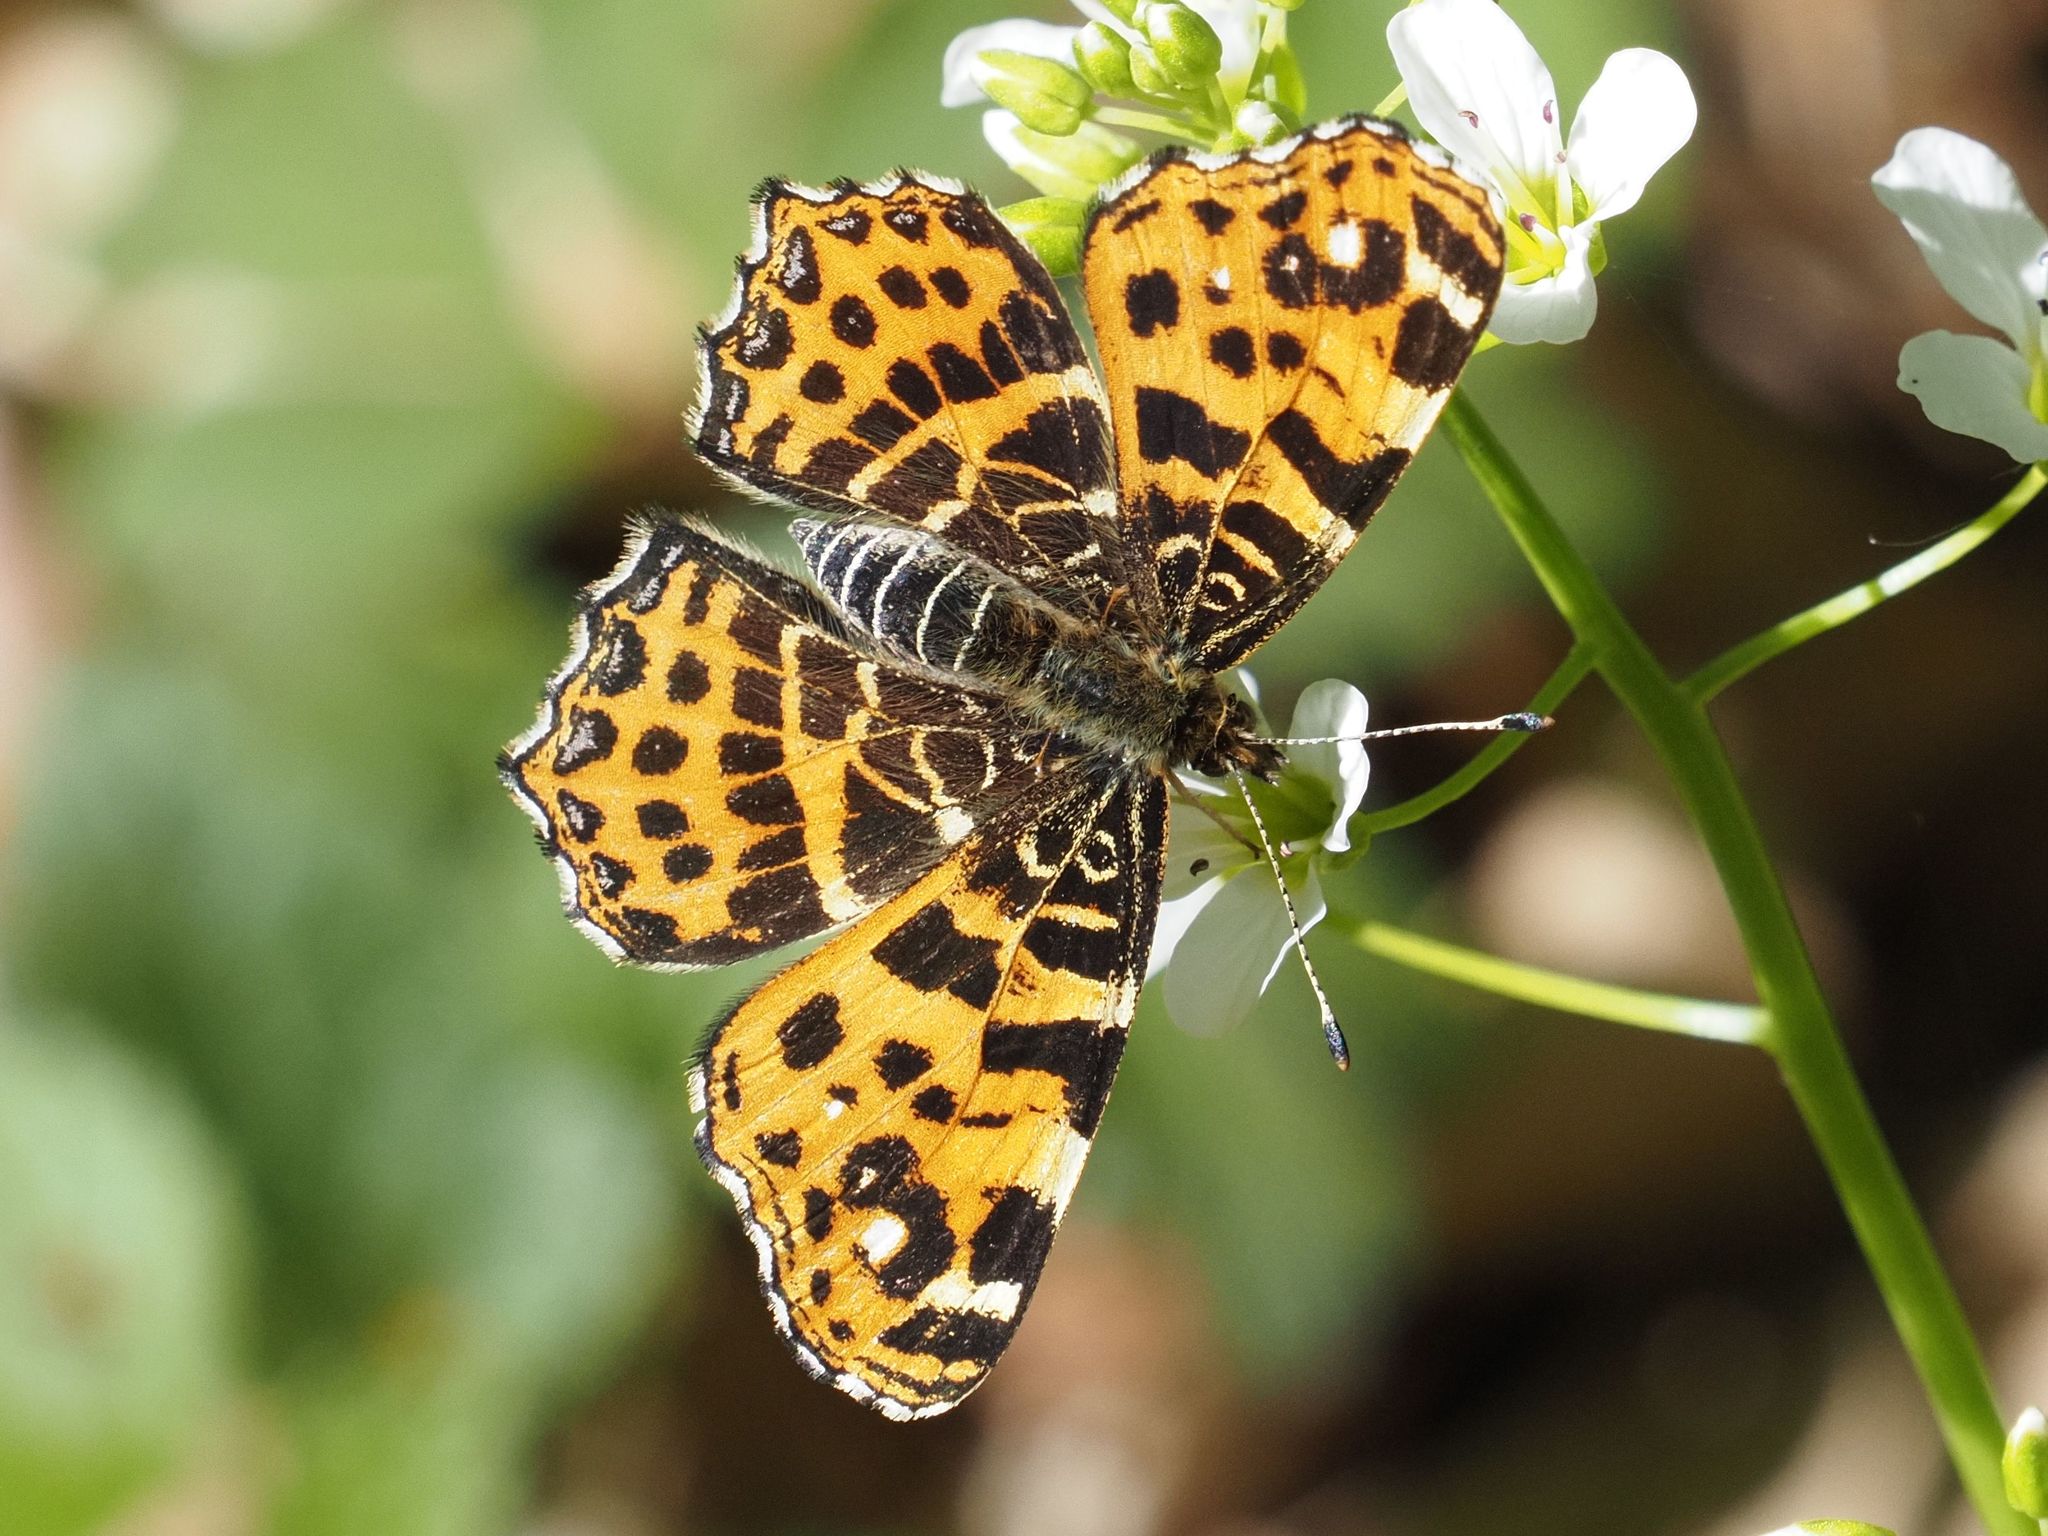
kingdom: Animalia
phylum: Arthropoda
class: Insecta
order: Lepidoptera
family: Nymphalidae
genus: Araschnia
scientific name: Araschnia levana
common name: Map butterfly
